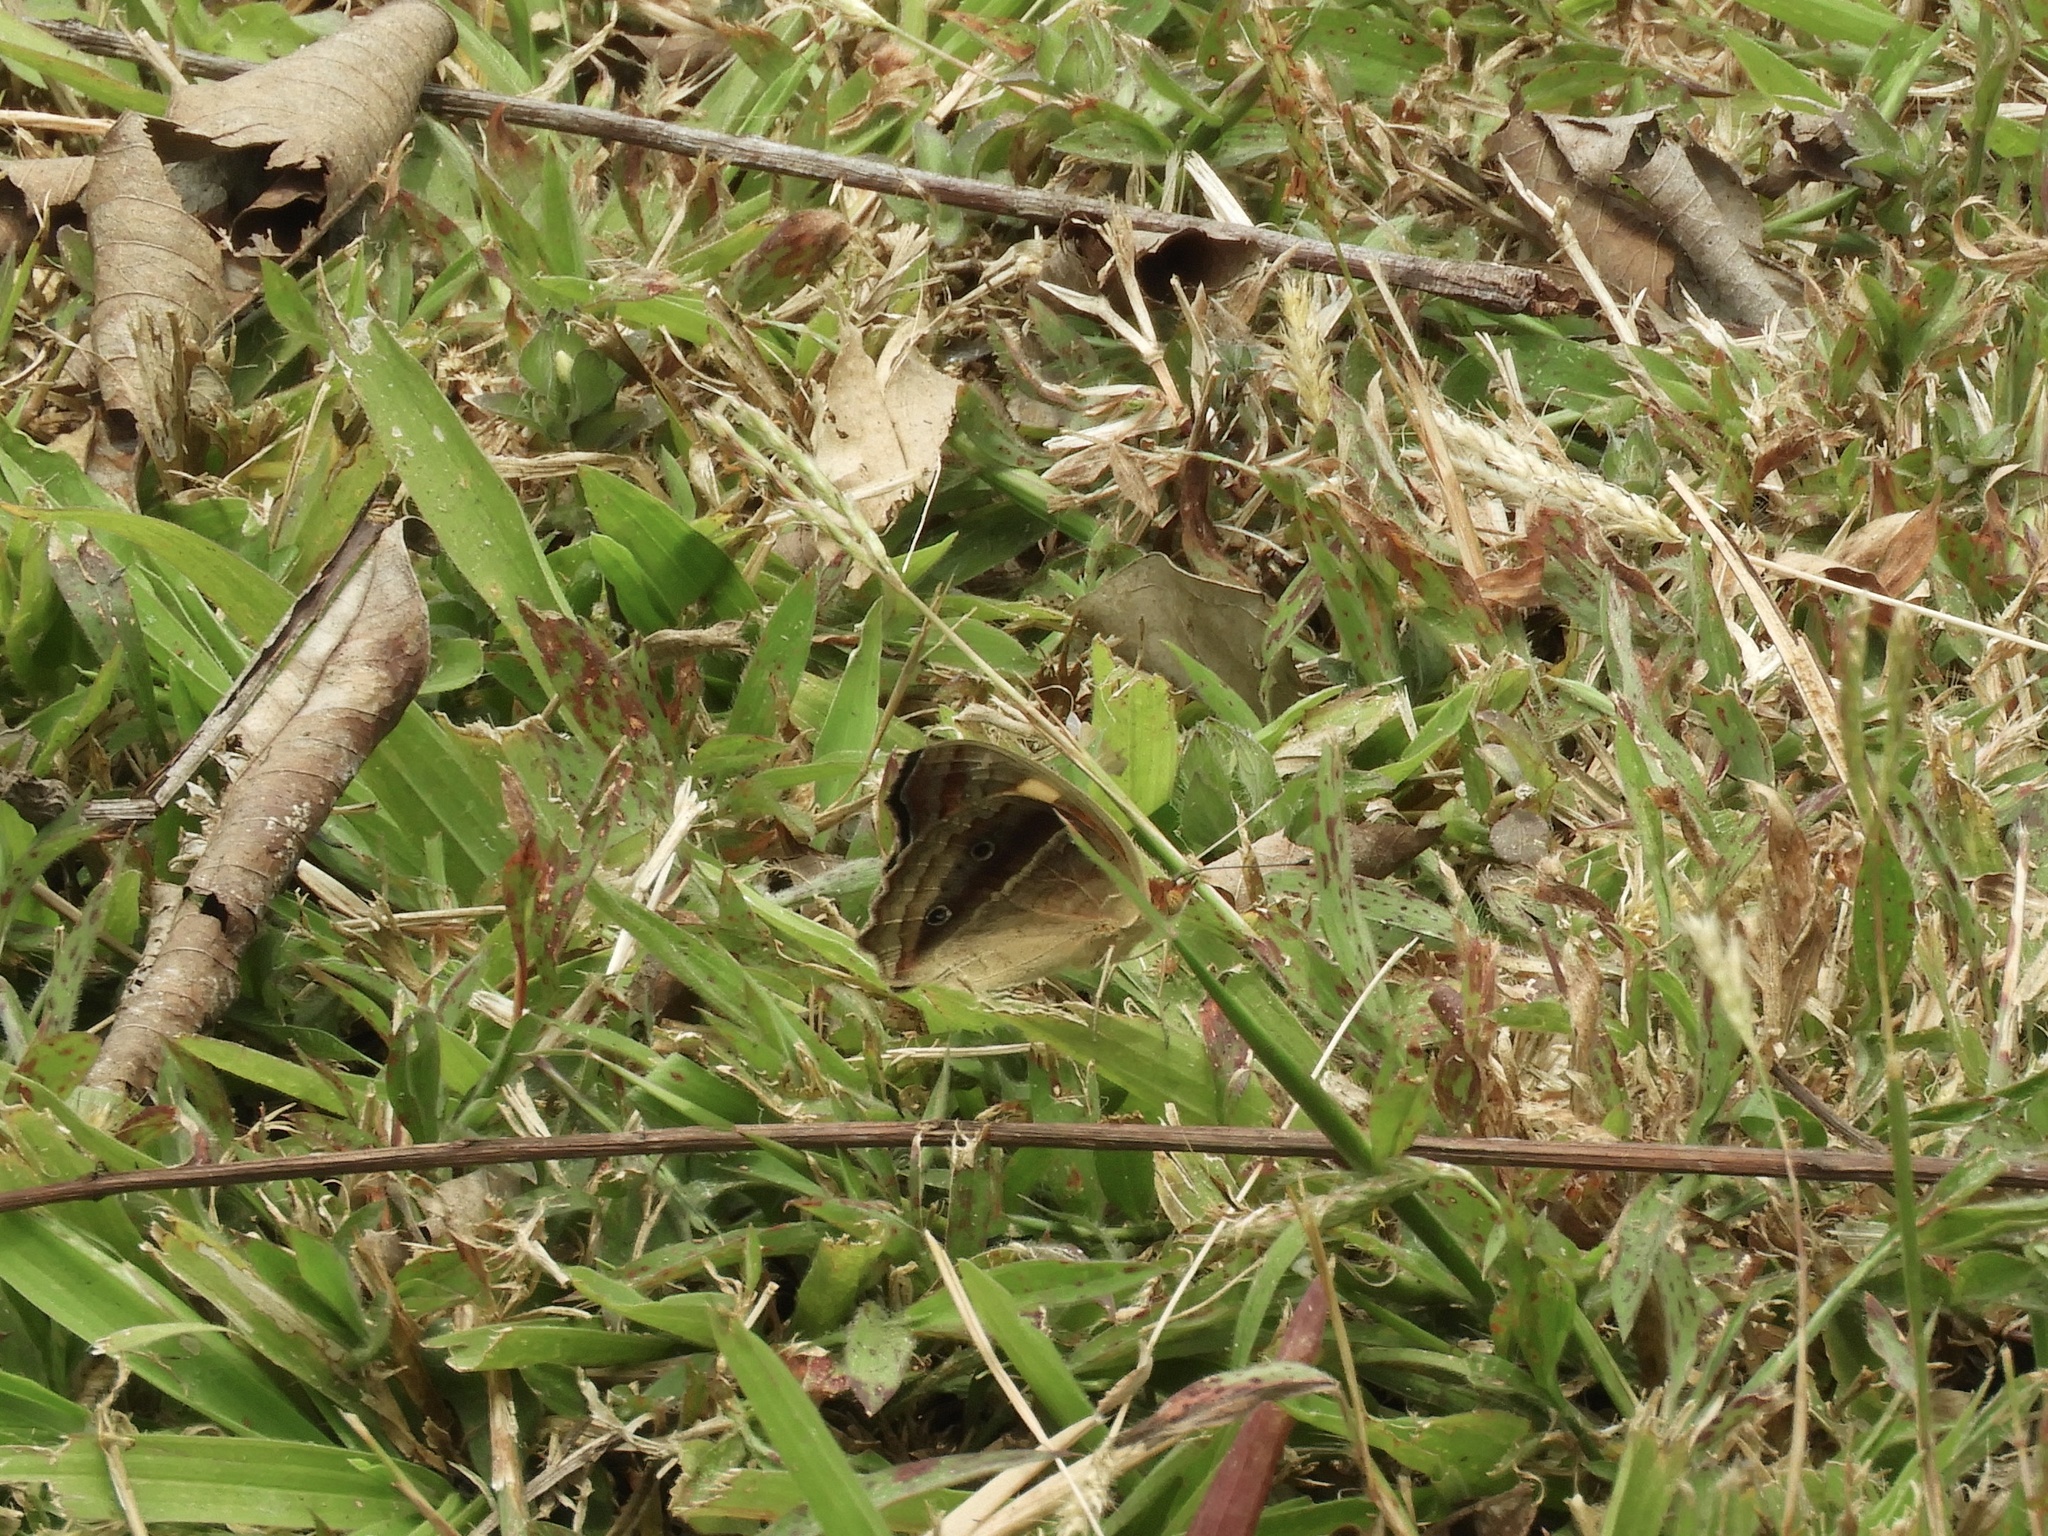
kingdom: Animalia
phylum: Arthropoda
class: Insecta
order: Lepidoptera
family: Nymphalidae
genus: Junonia
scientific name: Junonia lavinia
